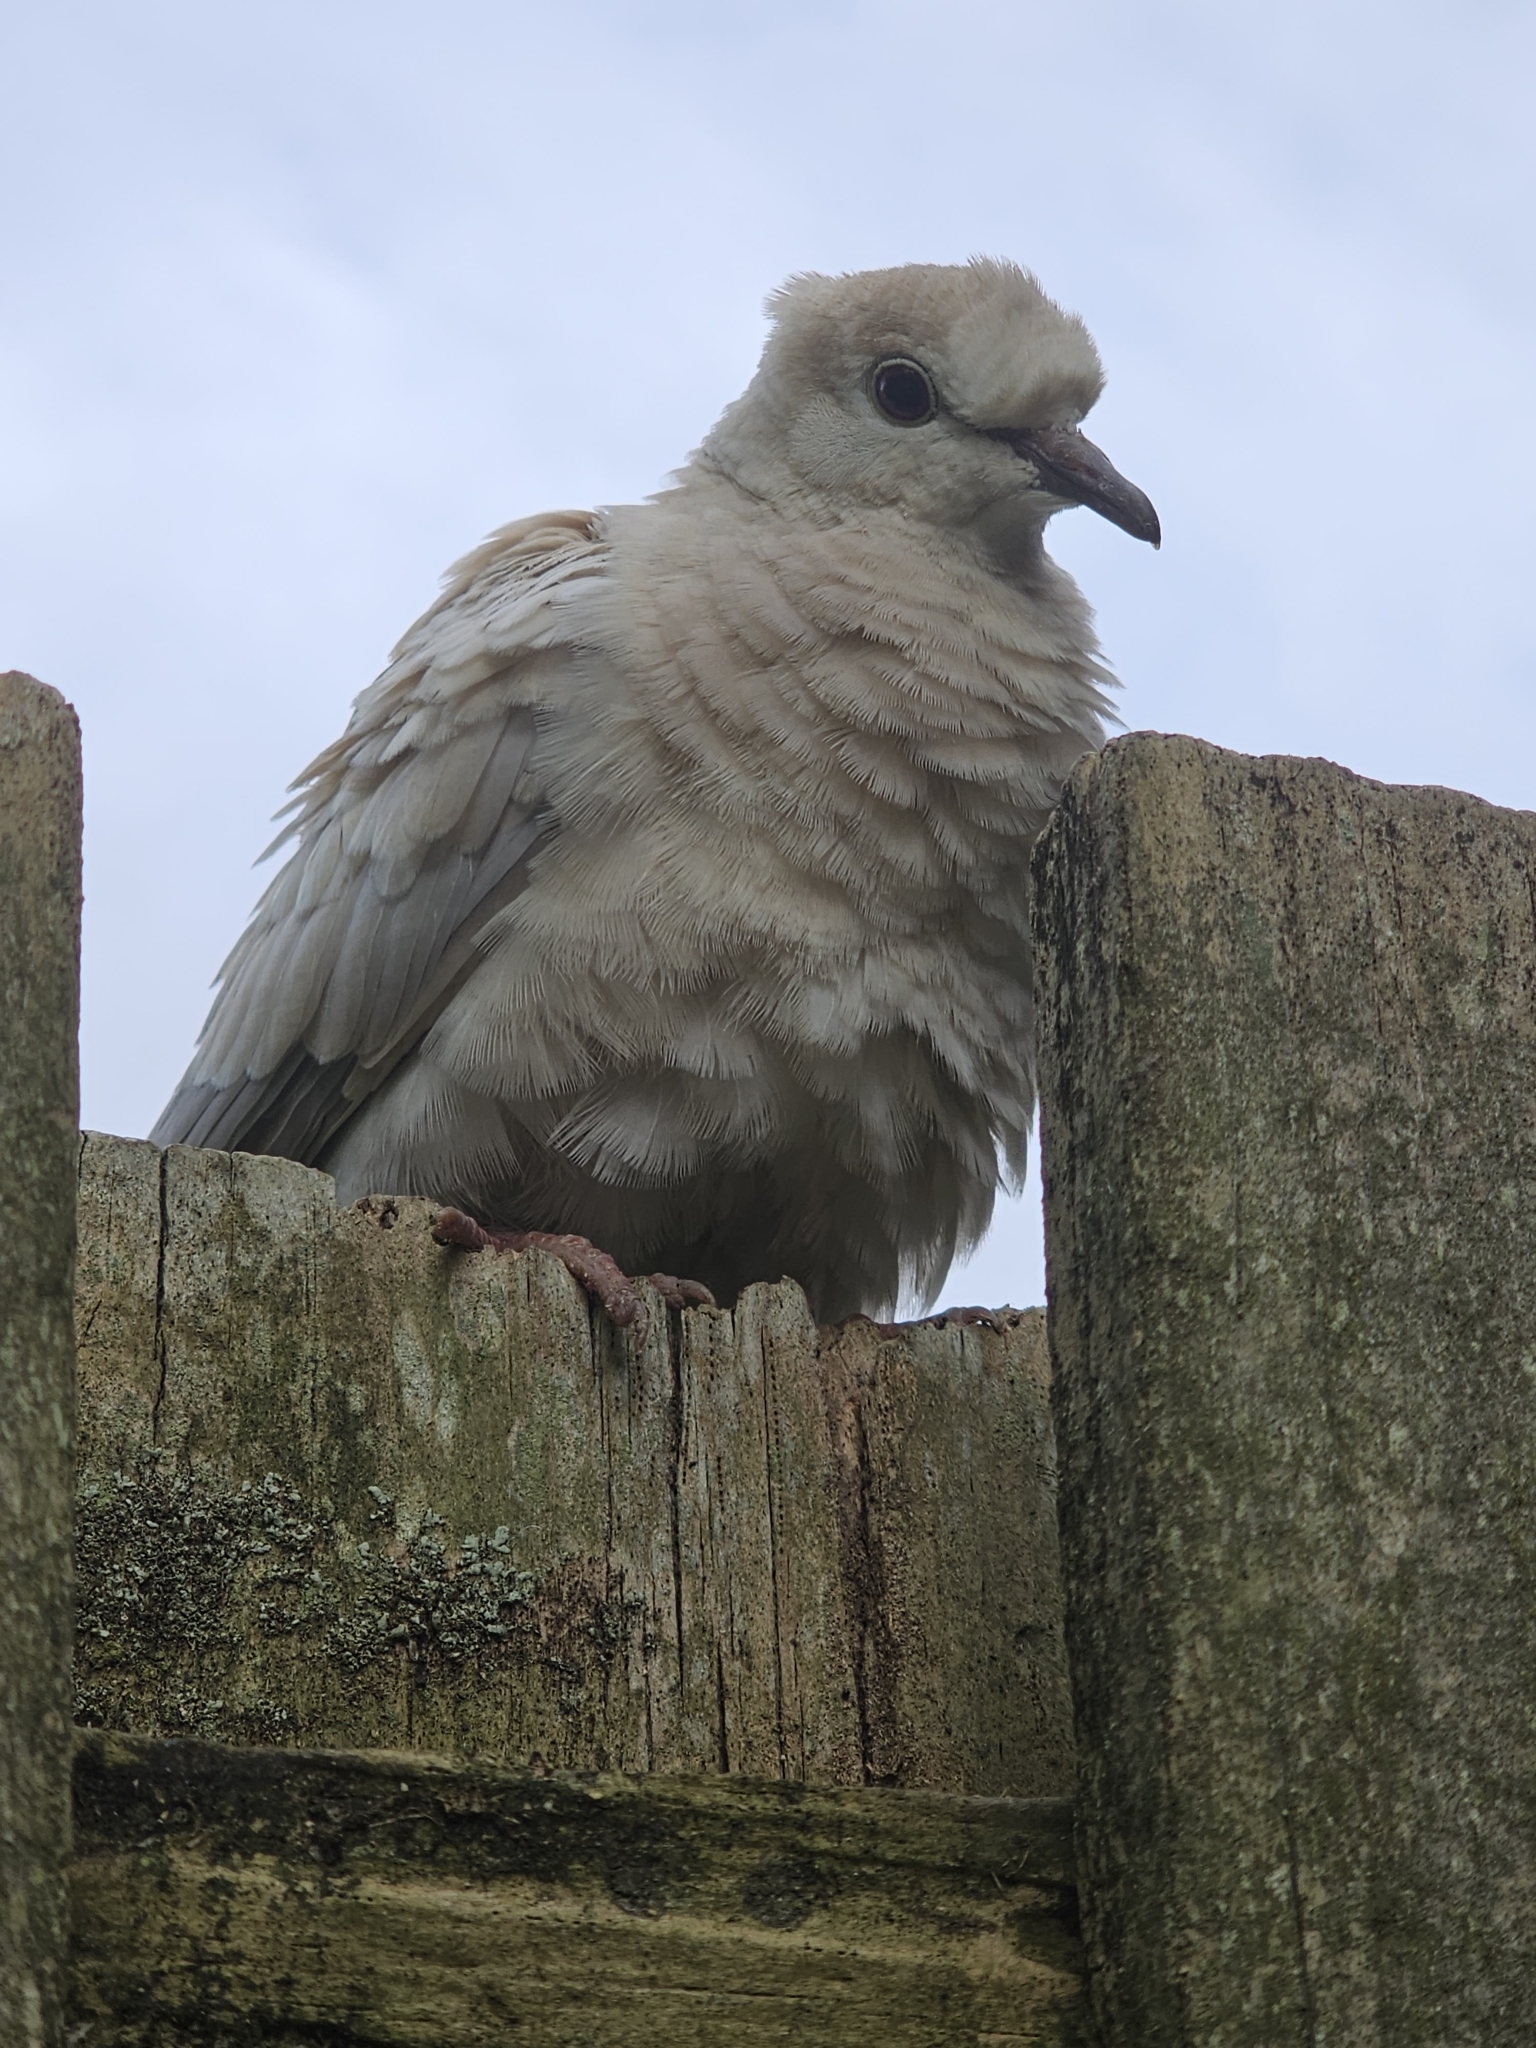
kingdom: Animalia
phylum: Chordata
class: Aves
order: Columbiformes
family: Columbidae
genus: Streptopelia
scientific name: Streptopelia roseogrisea
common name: African collared dove
